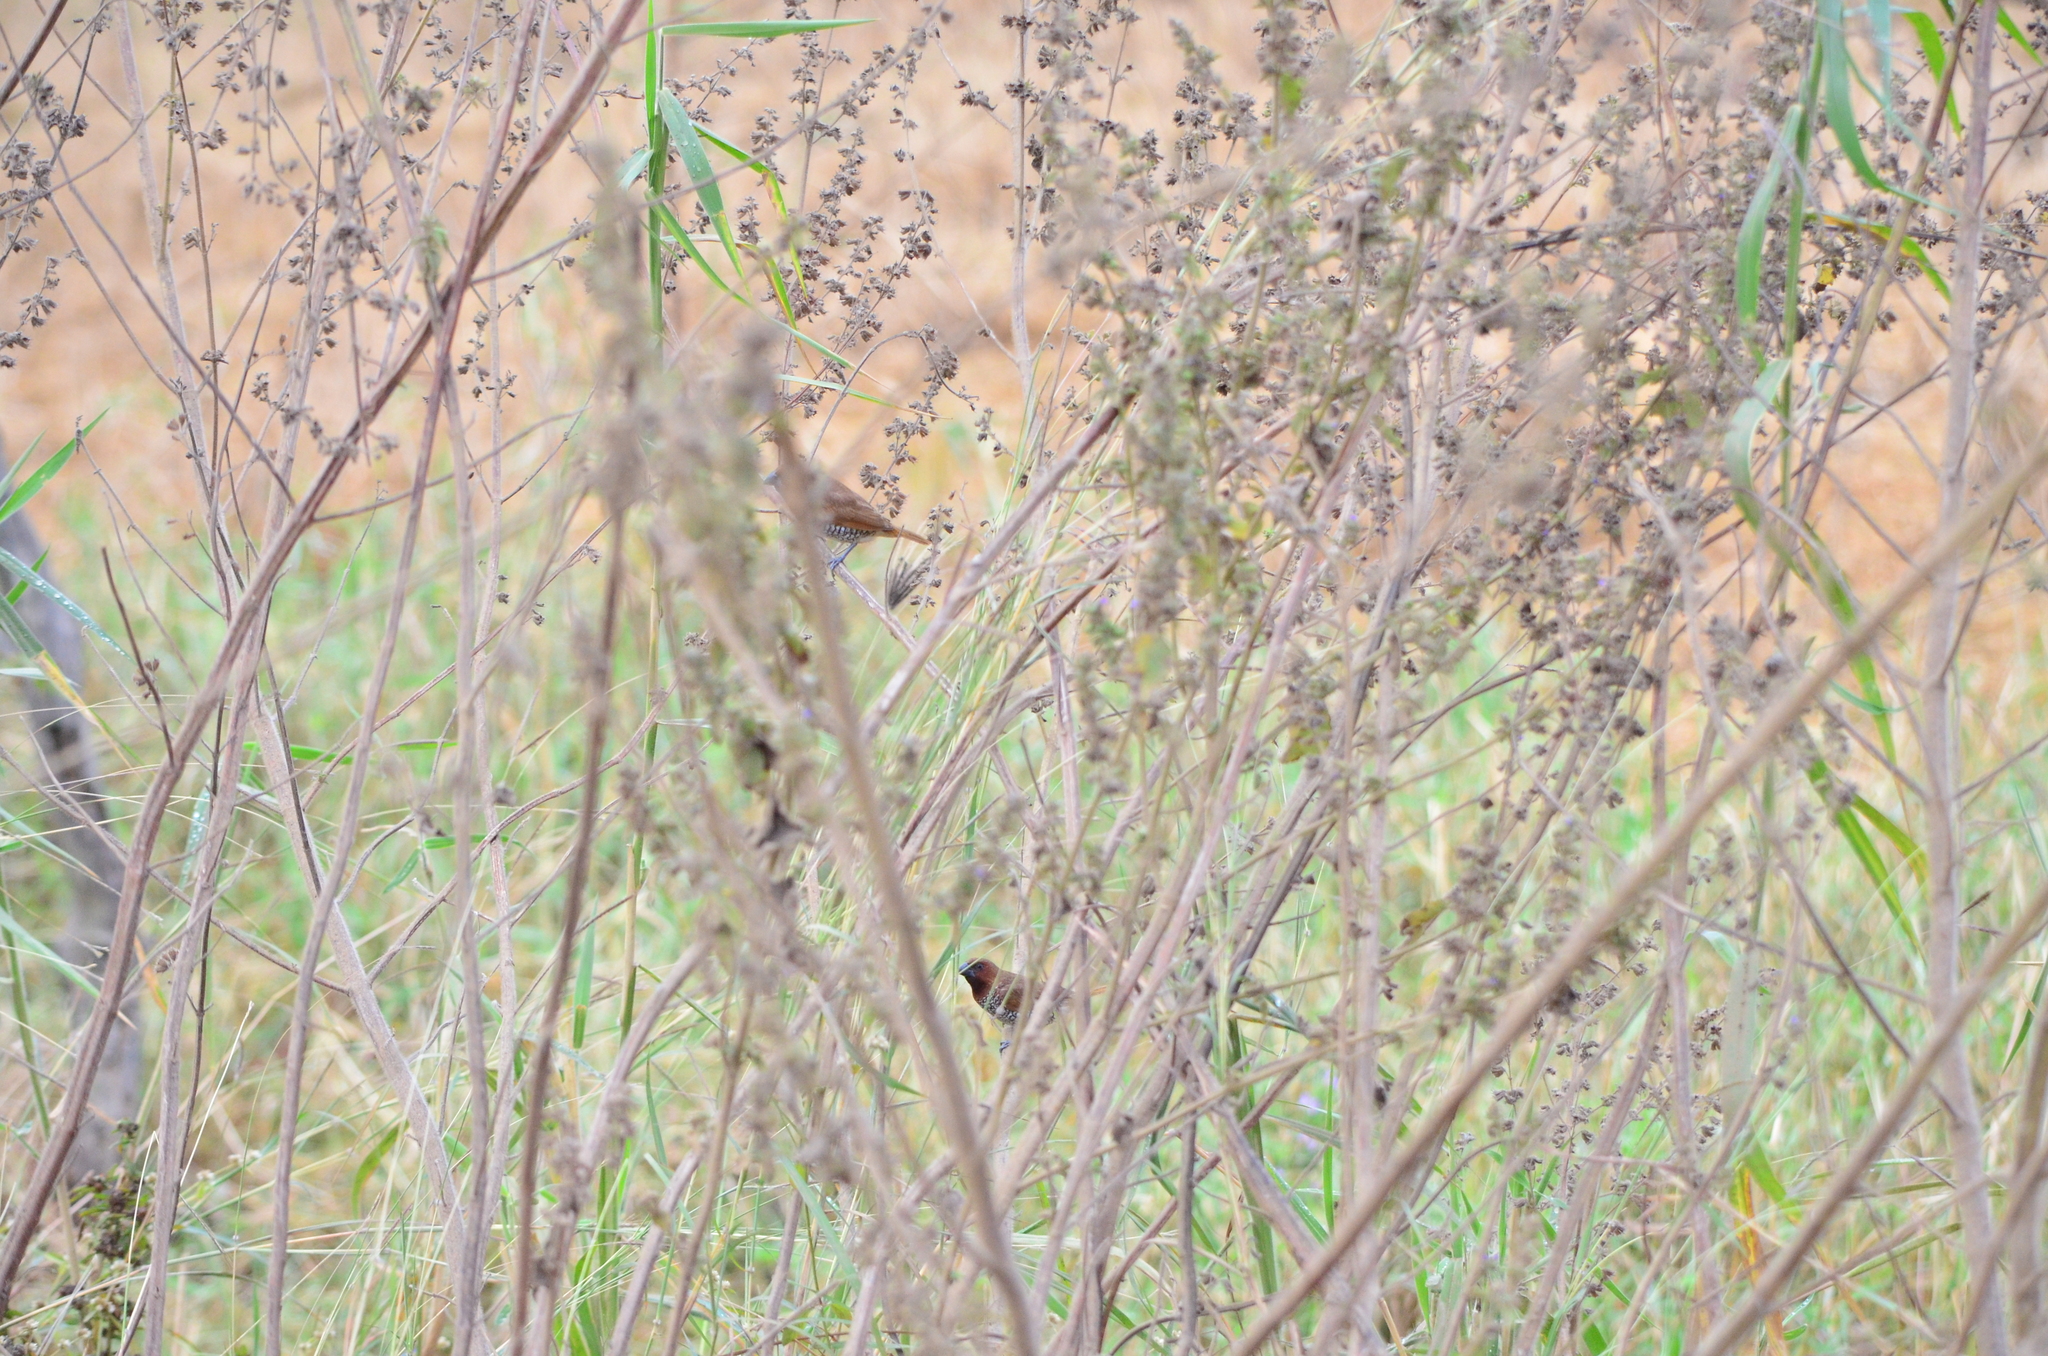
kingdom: Animalia
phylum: Chordata
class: Aves
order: Passeriformes
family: Estrildidae
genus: Lonchura
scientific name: Lonchura punctulata
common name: Scaly-breasted munia
